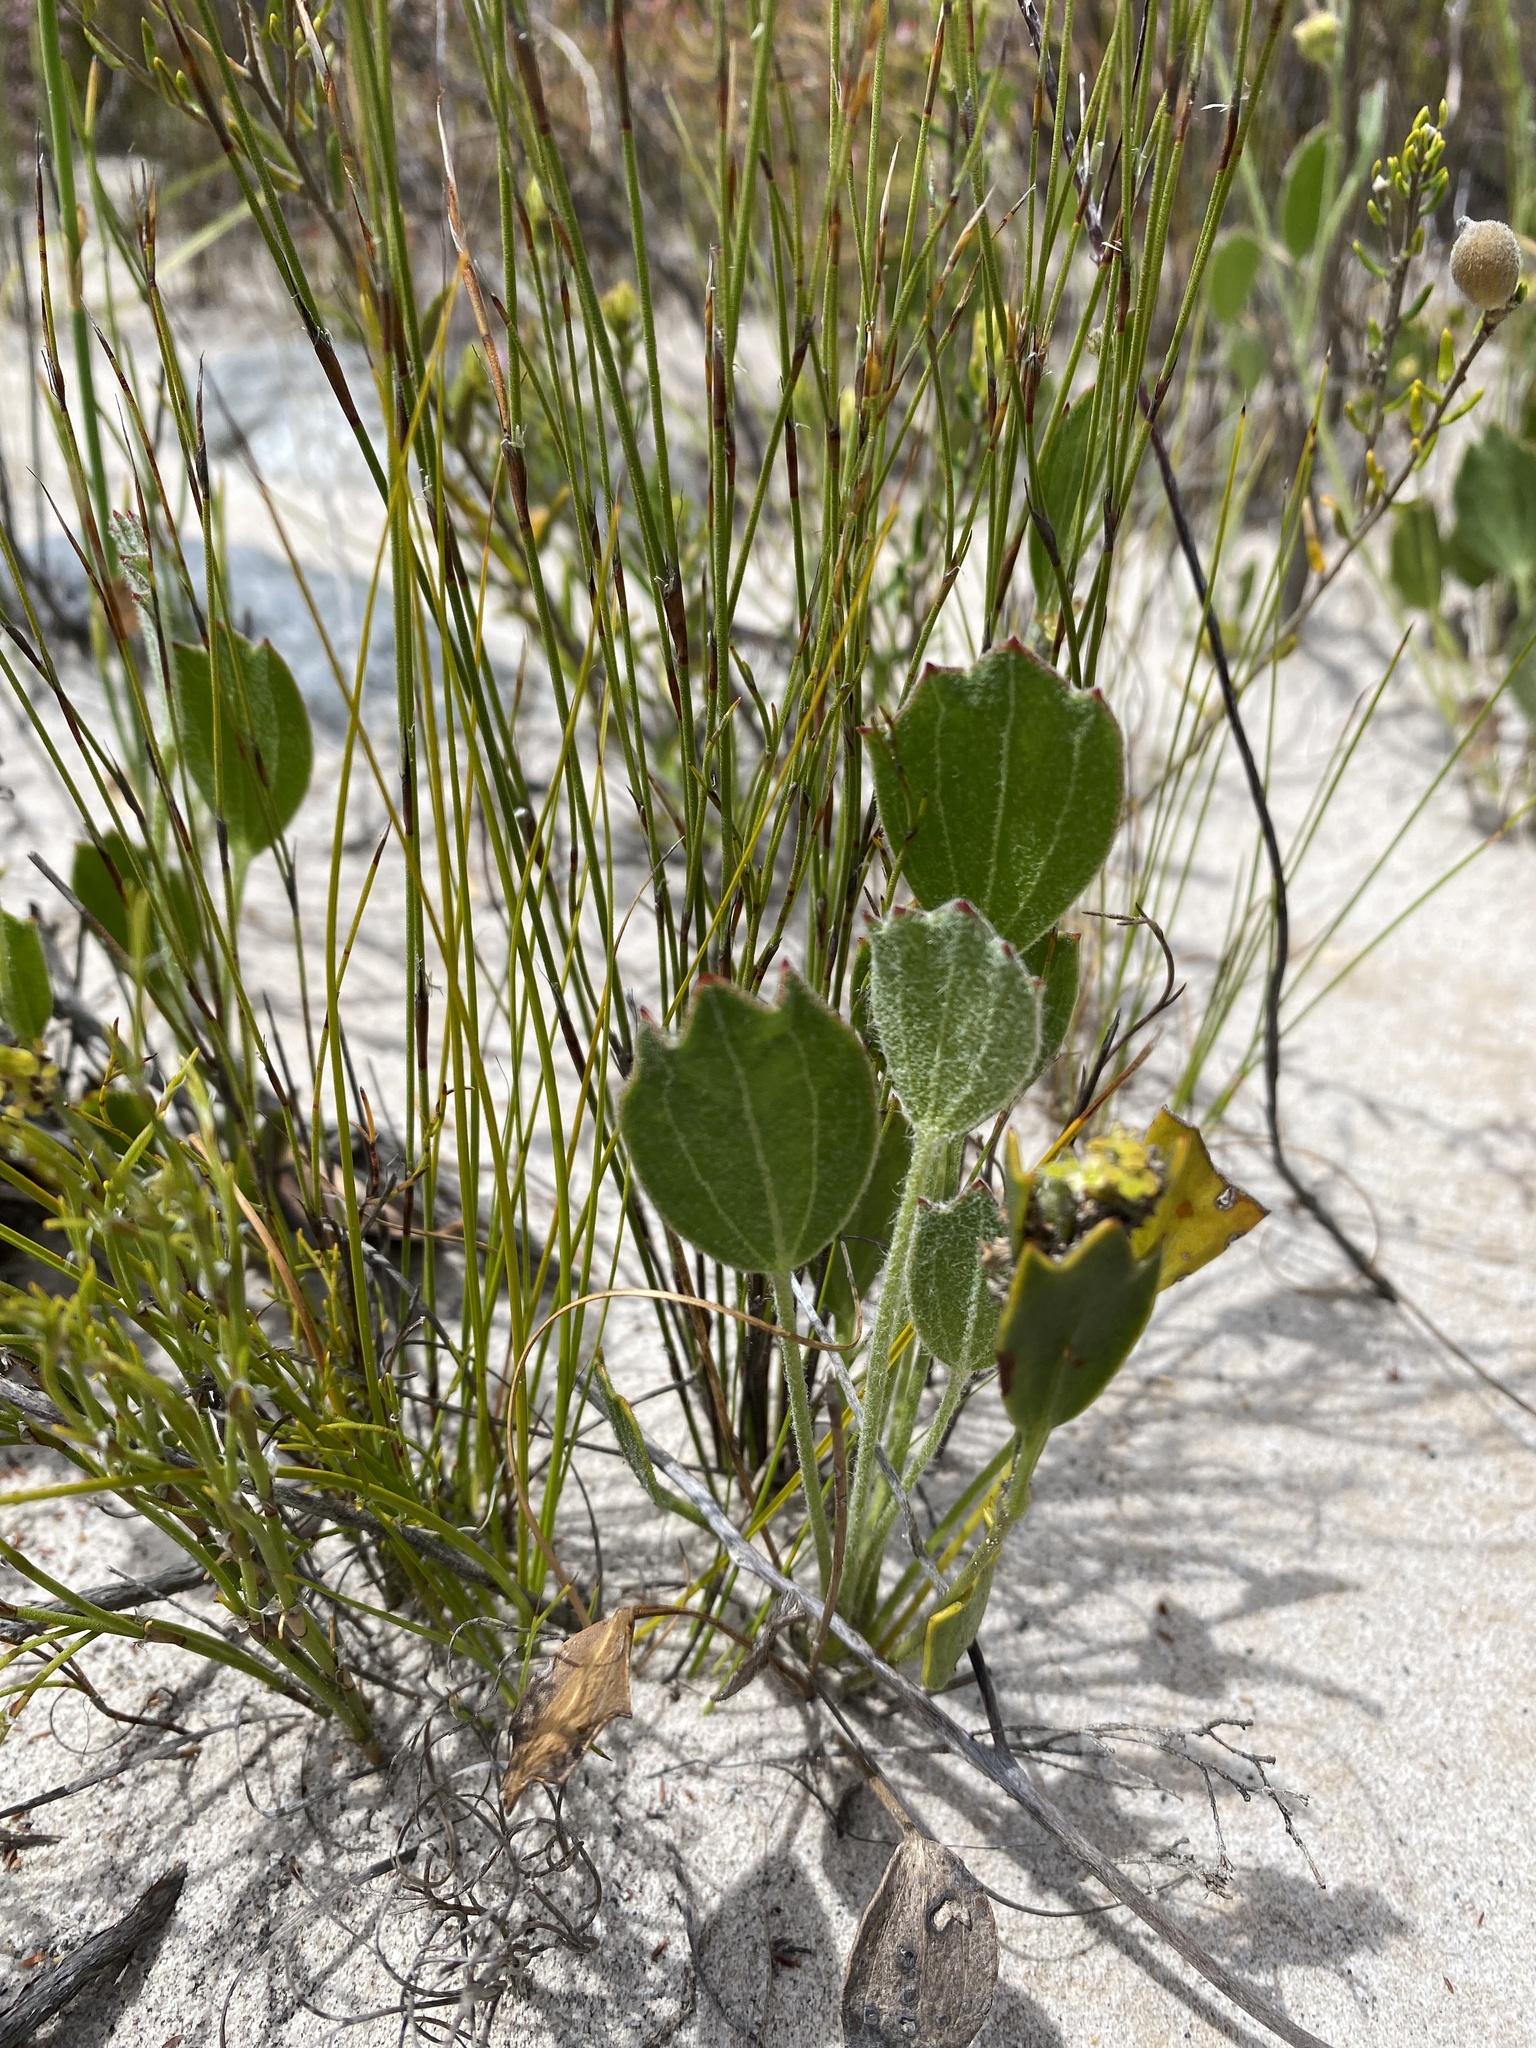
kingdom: Plantae
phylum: Tracheophyta
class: Magnoliopsida
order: Apiales
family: Apiaceae
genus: Centella
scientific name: Centella difformis
